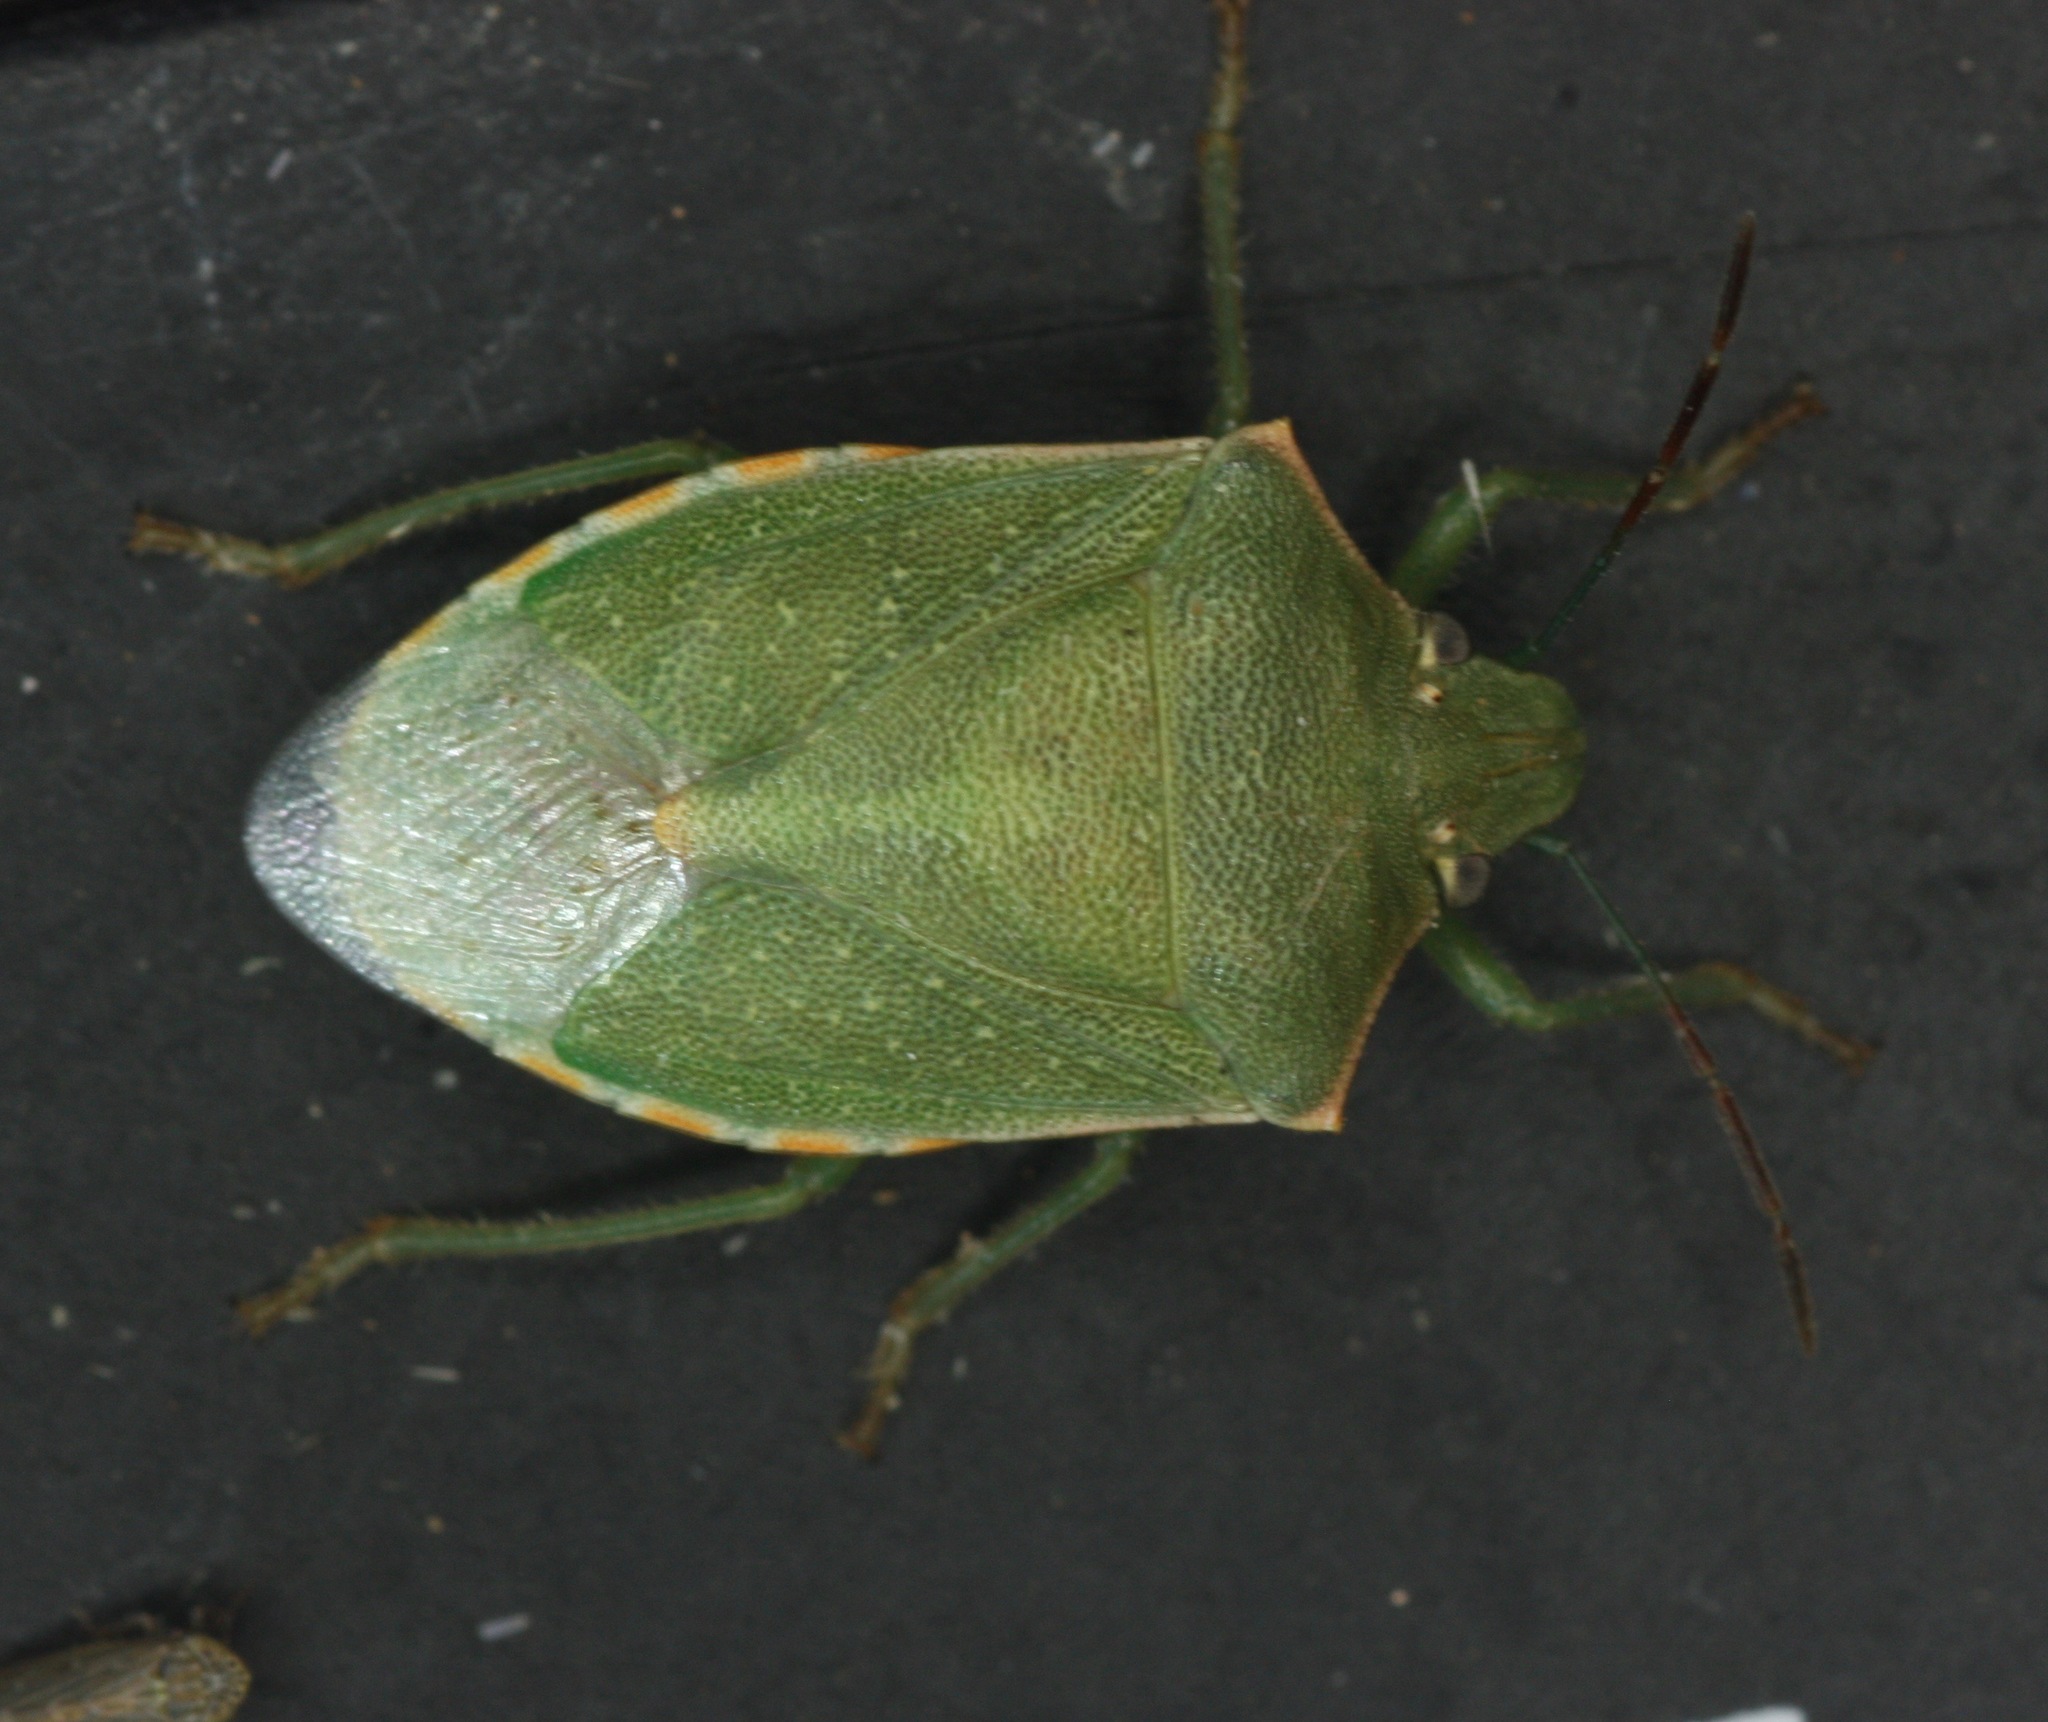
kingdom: Animalia
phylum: Arthropoda
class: Insecta
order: Hemiptera
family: Pentatomidae
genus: Thyanta
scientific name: Thyanta accerra
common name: Stink bug
